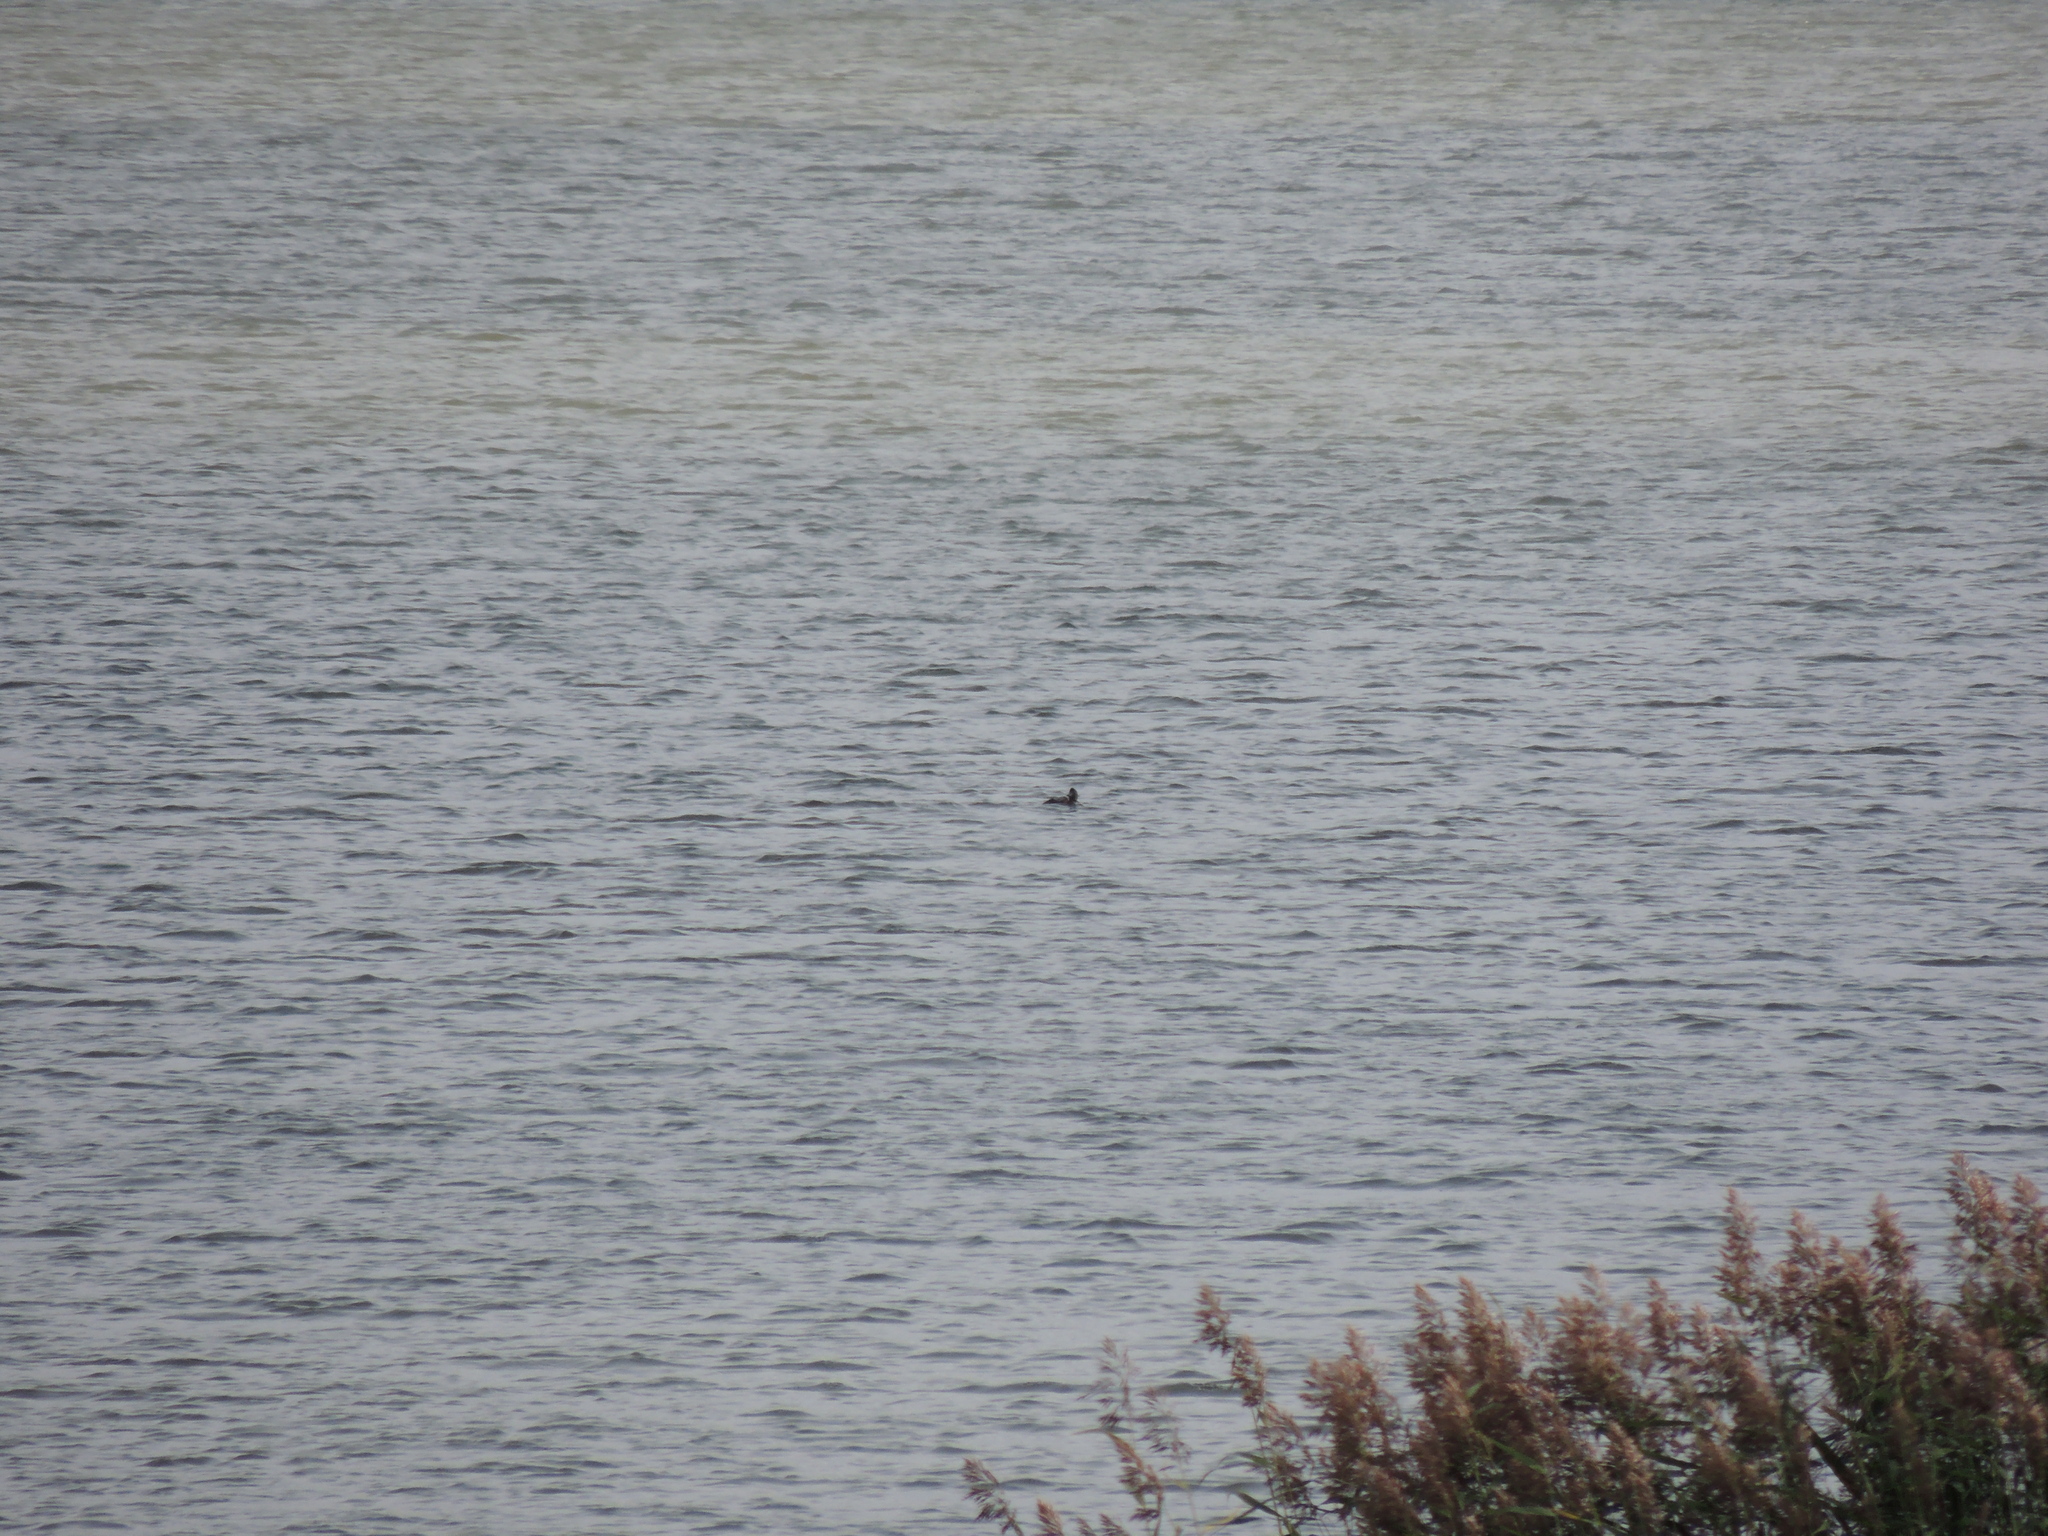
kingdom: Animalia
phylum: Chordata
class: Aves
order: Anseriformes
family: Anatidae
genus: Aythya
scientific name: Aythya fuligula
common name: Tufted duck
